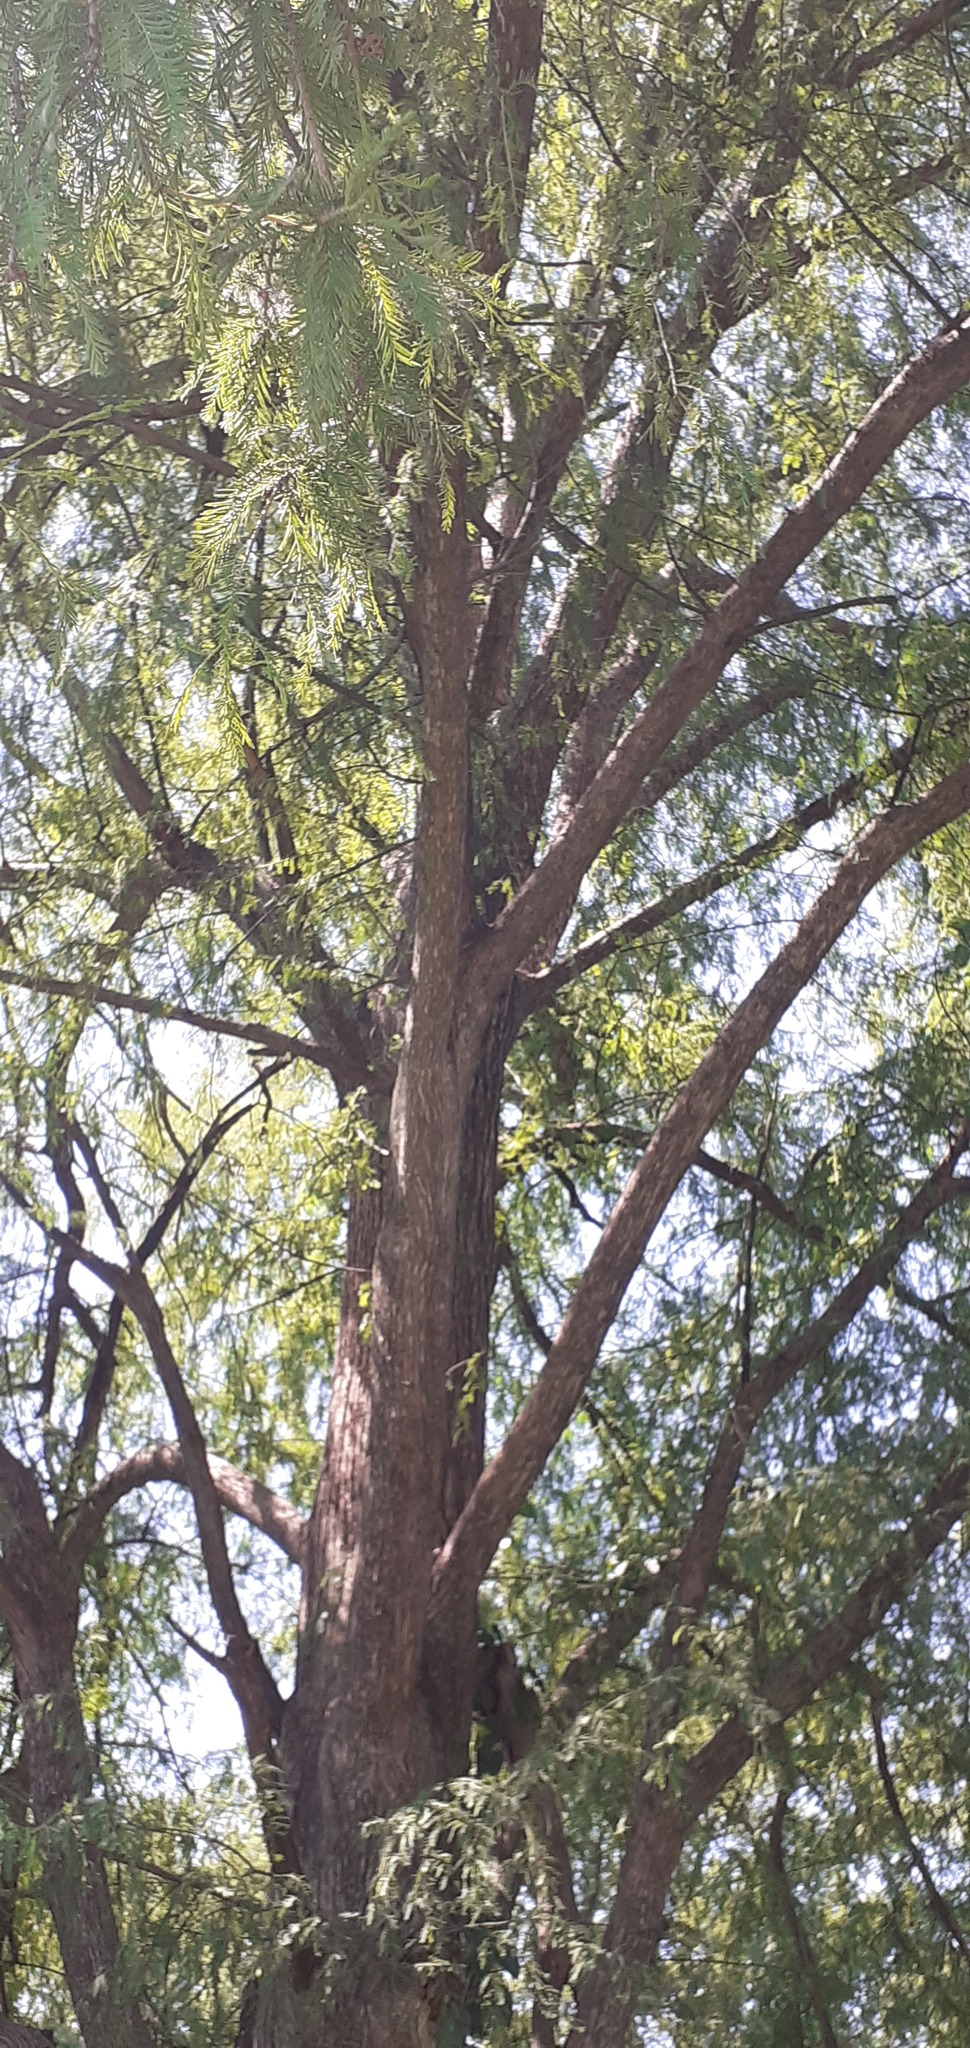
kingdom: Plantae
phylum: Tracheophyta
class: Pinopsida
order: Pinales
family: Cupressaceae
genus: Taxodium
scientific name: Taxodium mucronatum
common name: Montezume bald cypress
